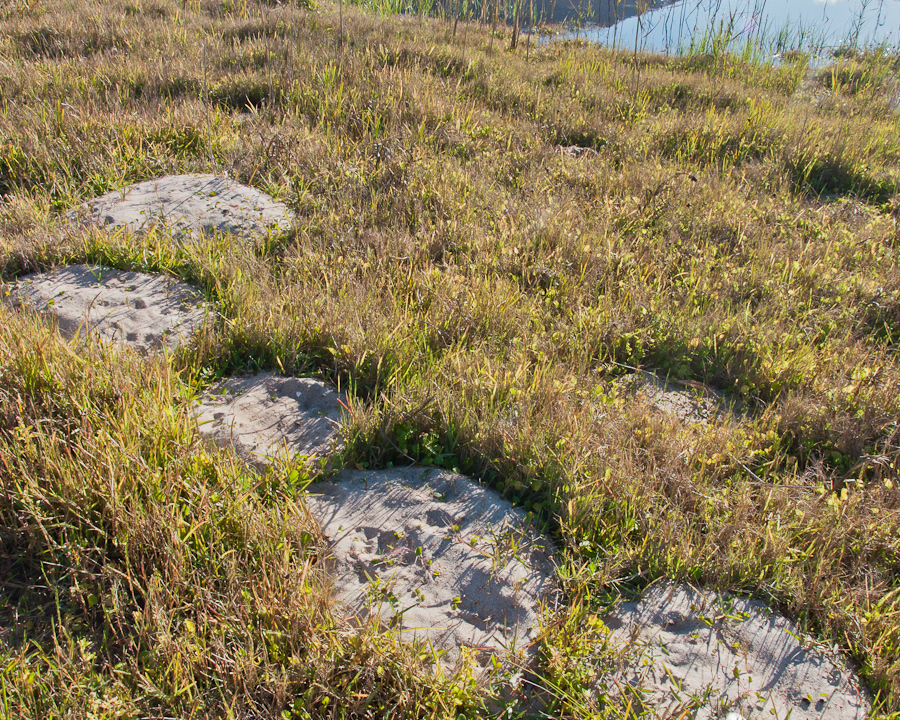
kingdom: Animalia
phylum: Chordata
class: Mammalia
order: Afrosoricida
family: Chrysochloridae
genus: Chrysochloris
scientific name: Chrysochloris asiatica
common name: Cape golden mole
